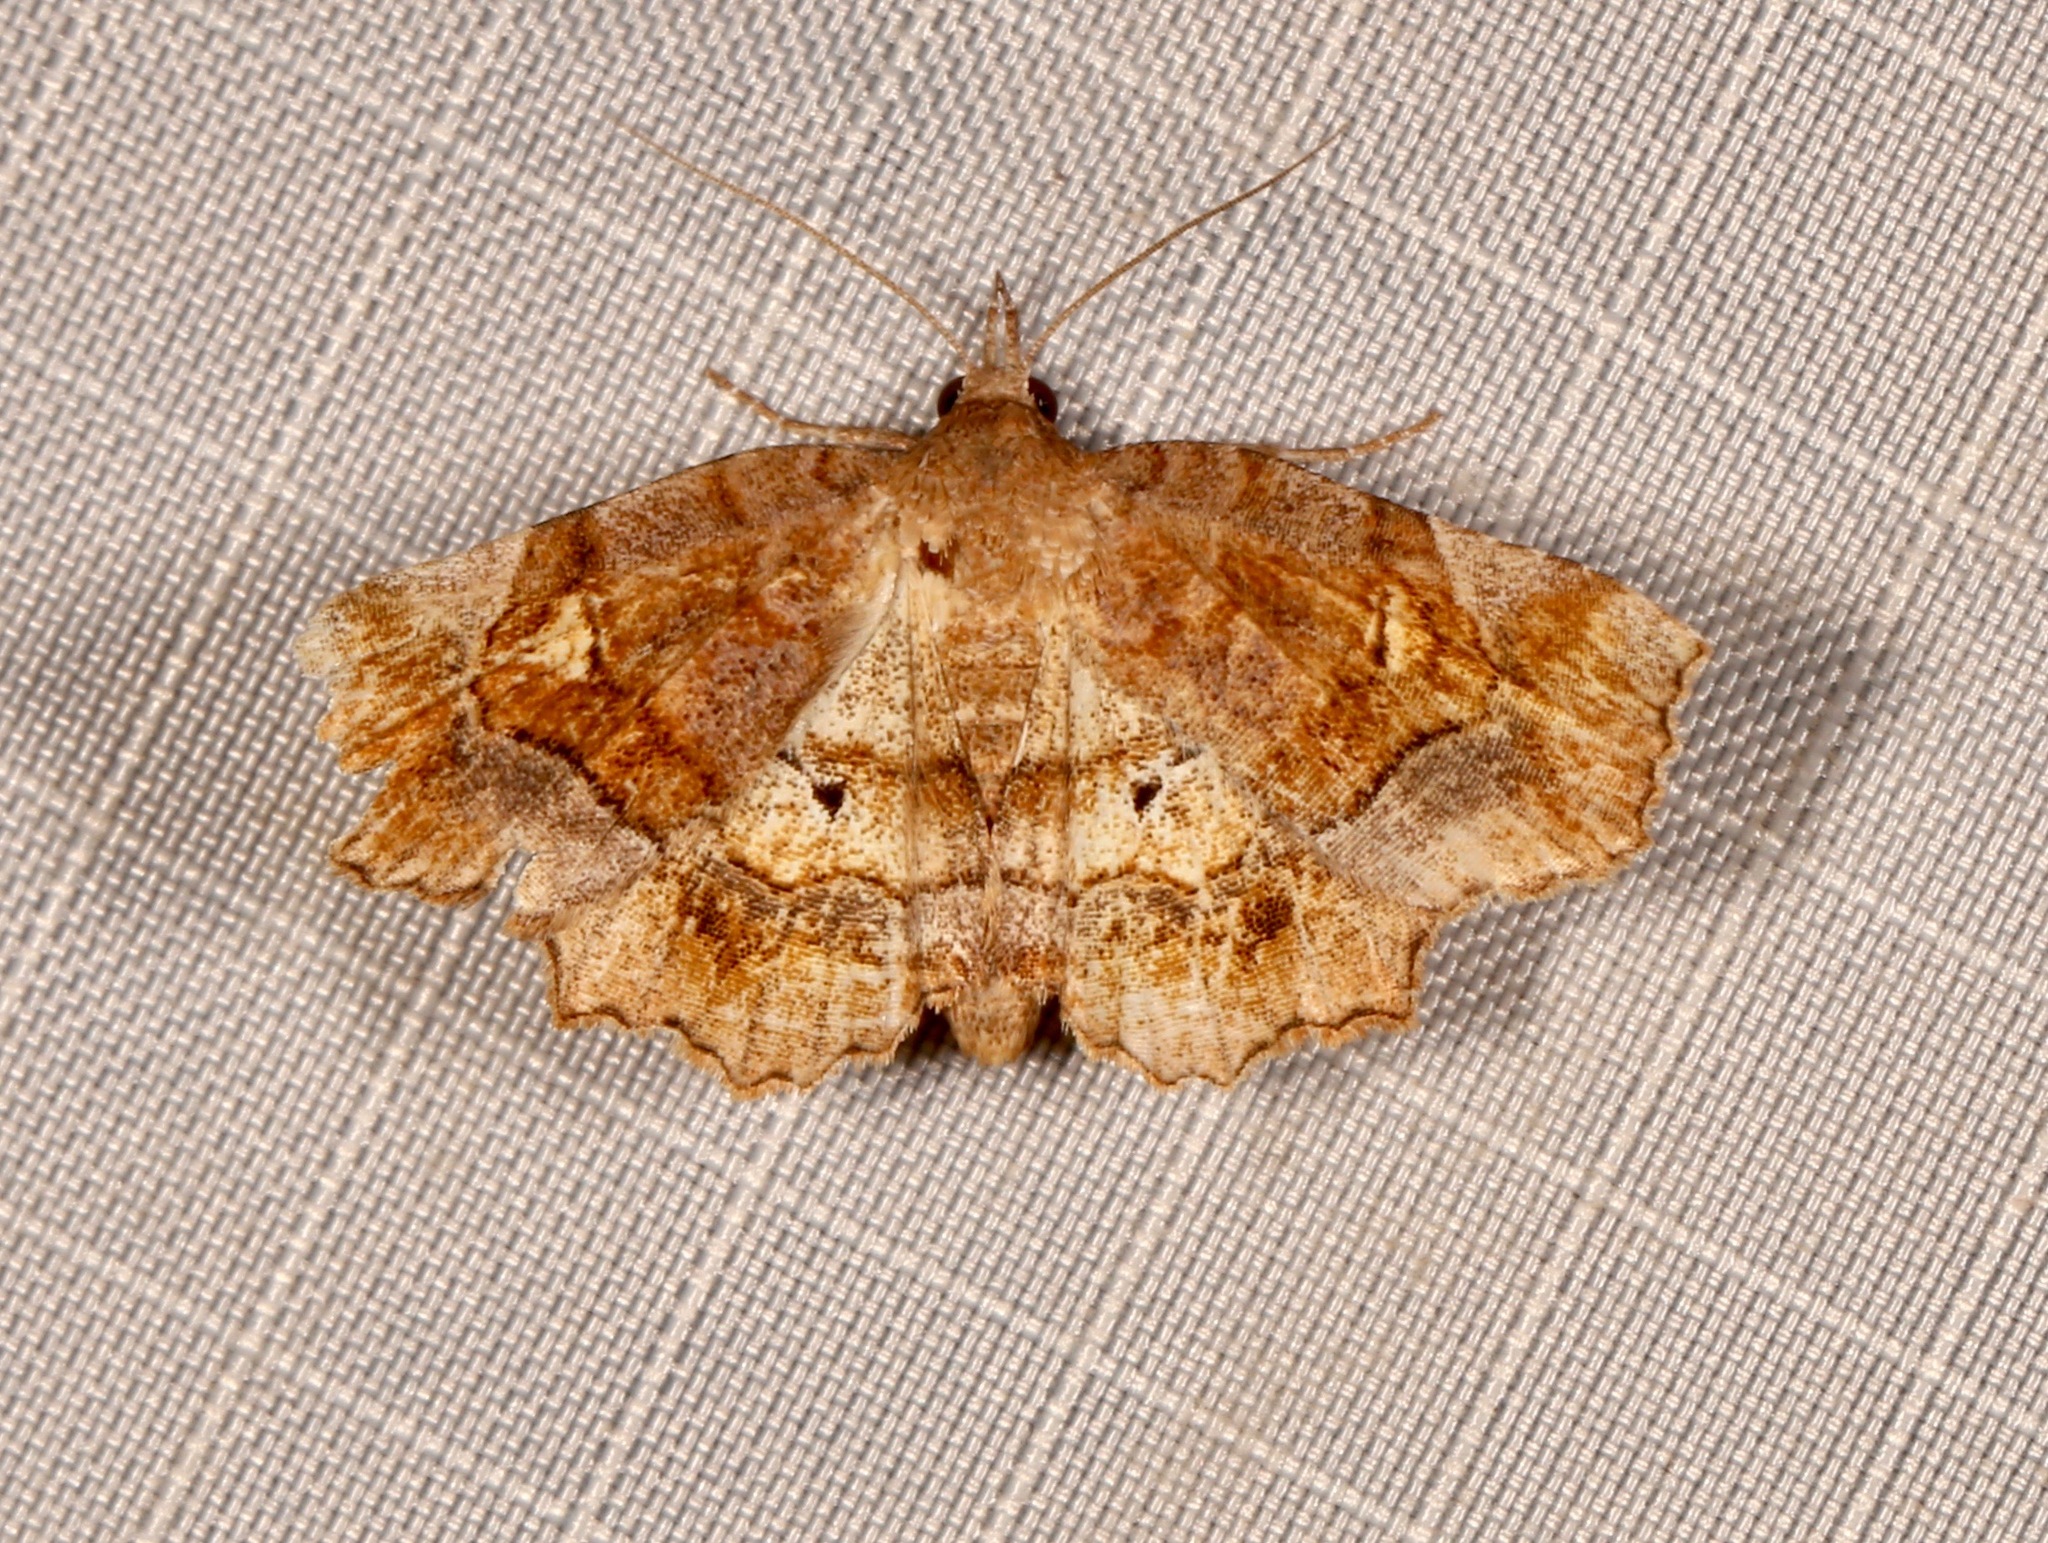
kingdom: Animalia
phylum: Arthropoda
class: Insecta
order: Lepidoptera
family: Erebidae
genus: Pangrapta
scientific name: Pangrapta decoralis
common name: Decorated owlet
